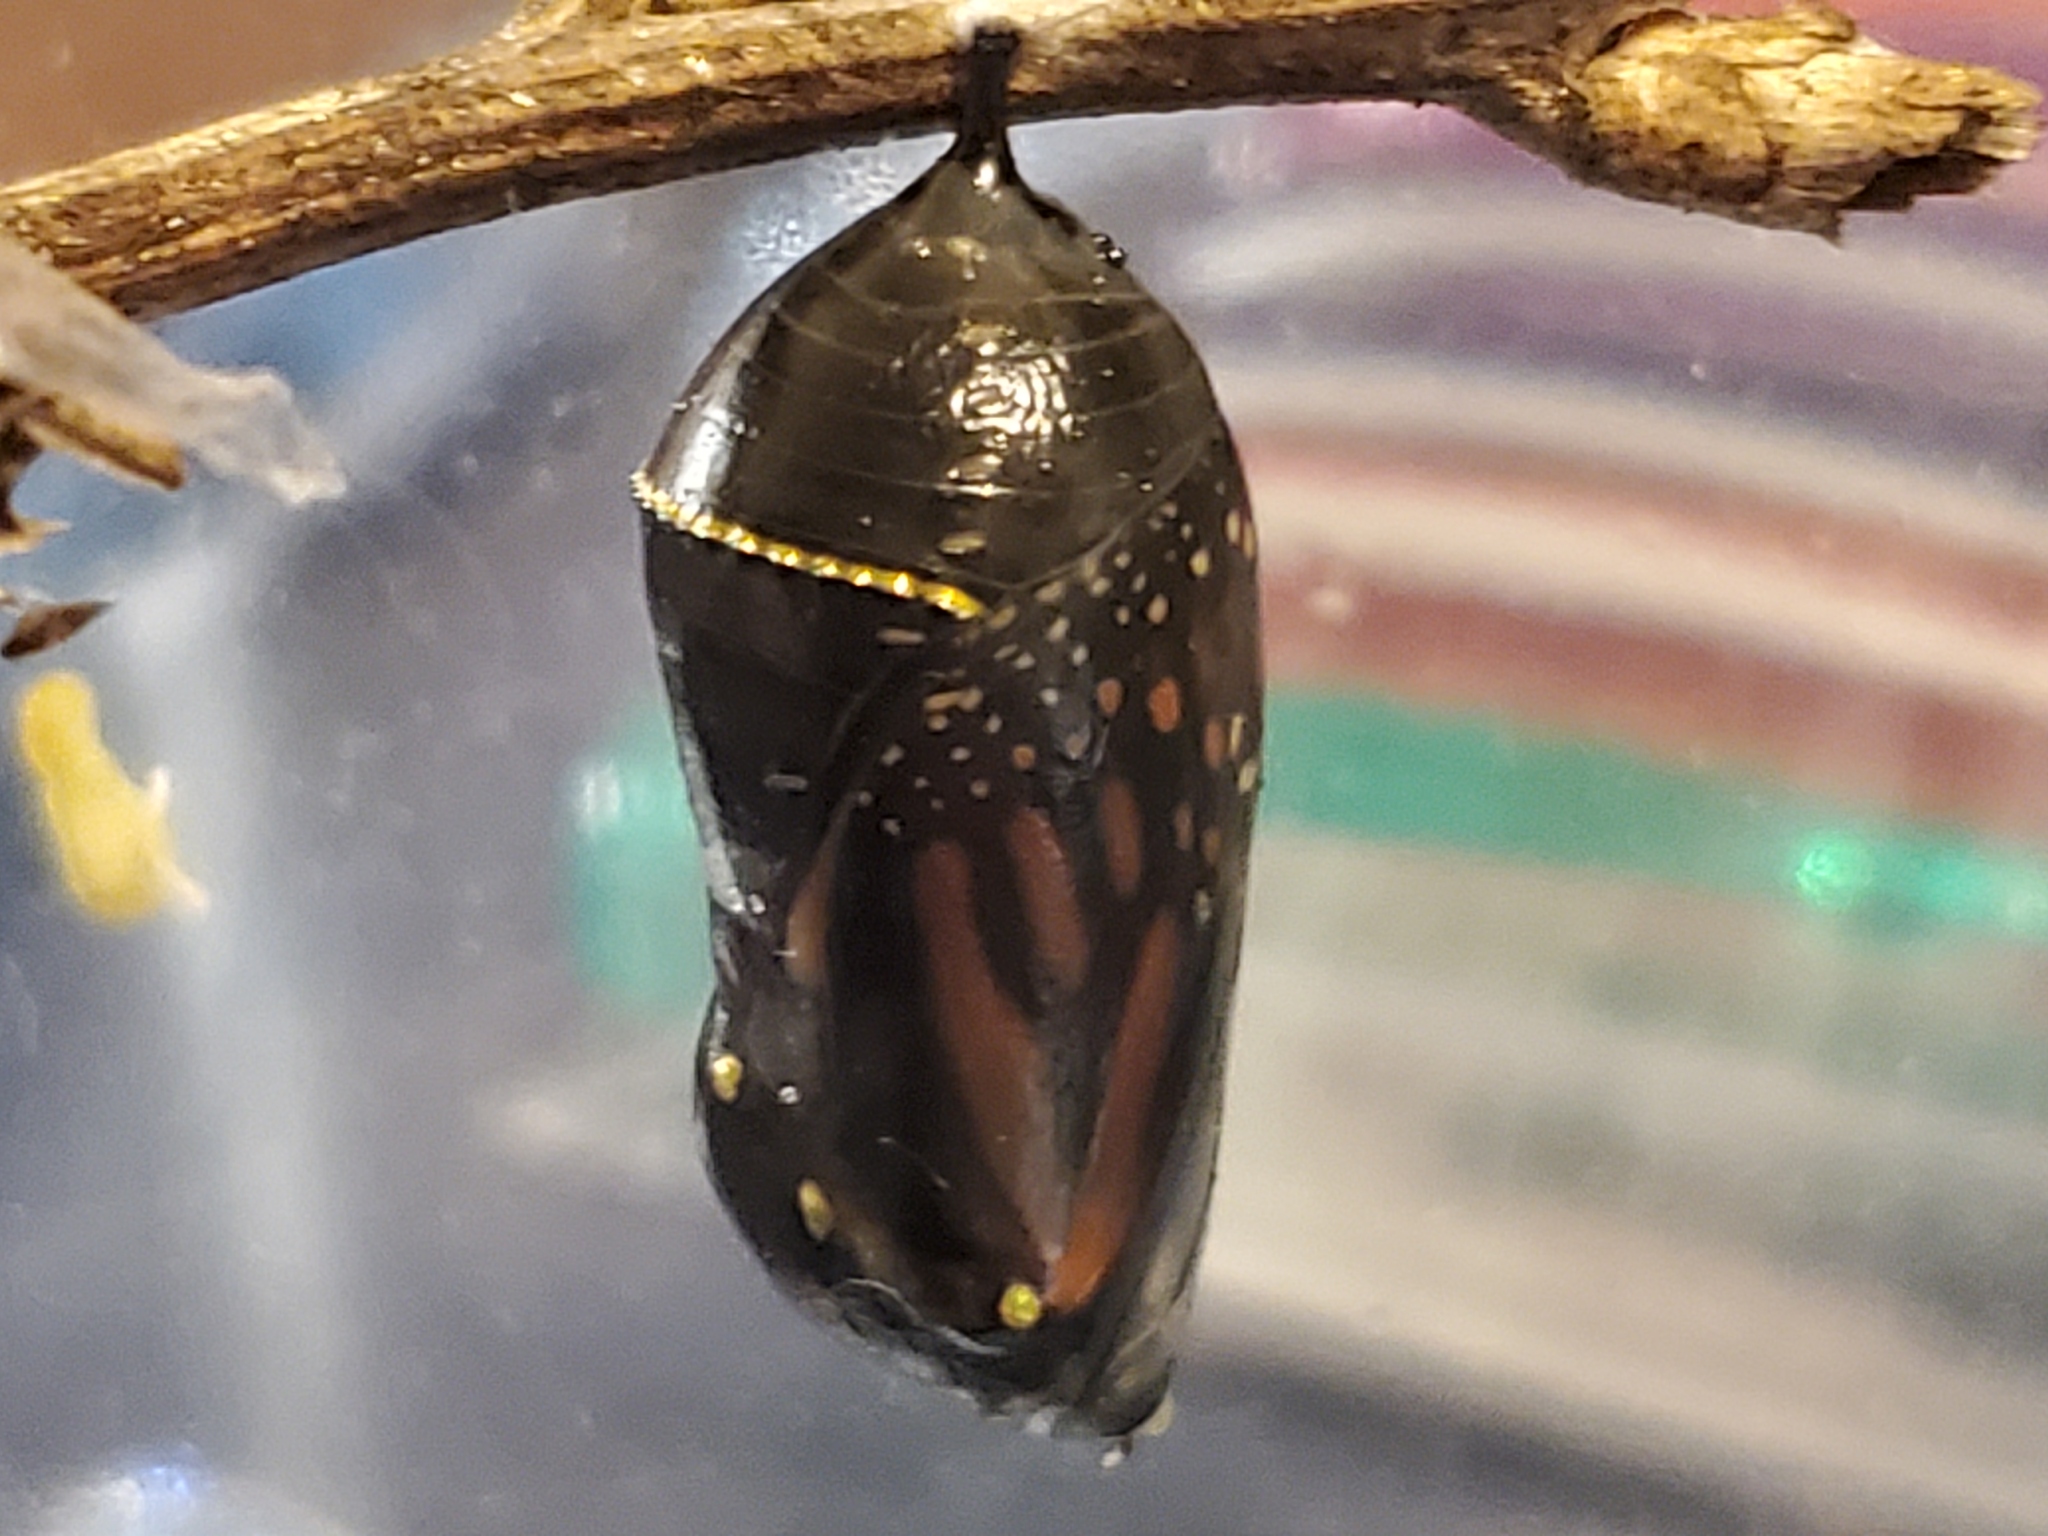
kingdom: Animalia
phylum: Arthropoda
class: Insecta
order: Lepidoptera
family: Nymphalidae
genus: Danaus
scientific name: Danaus plexippus
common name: Monarch
